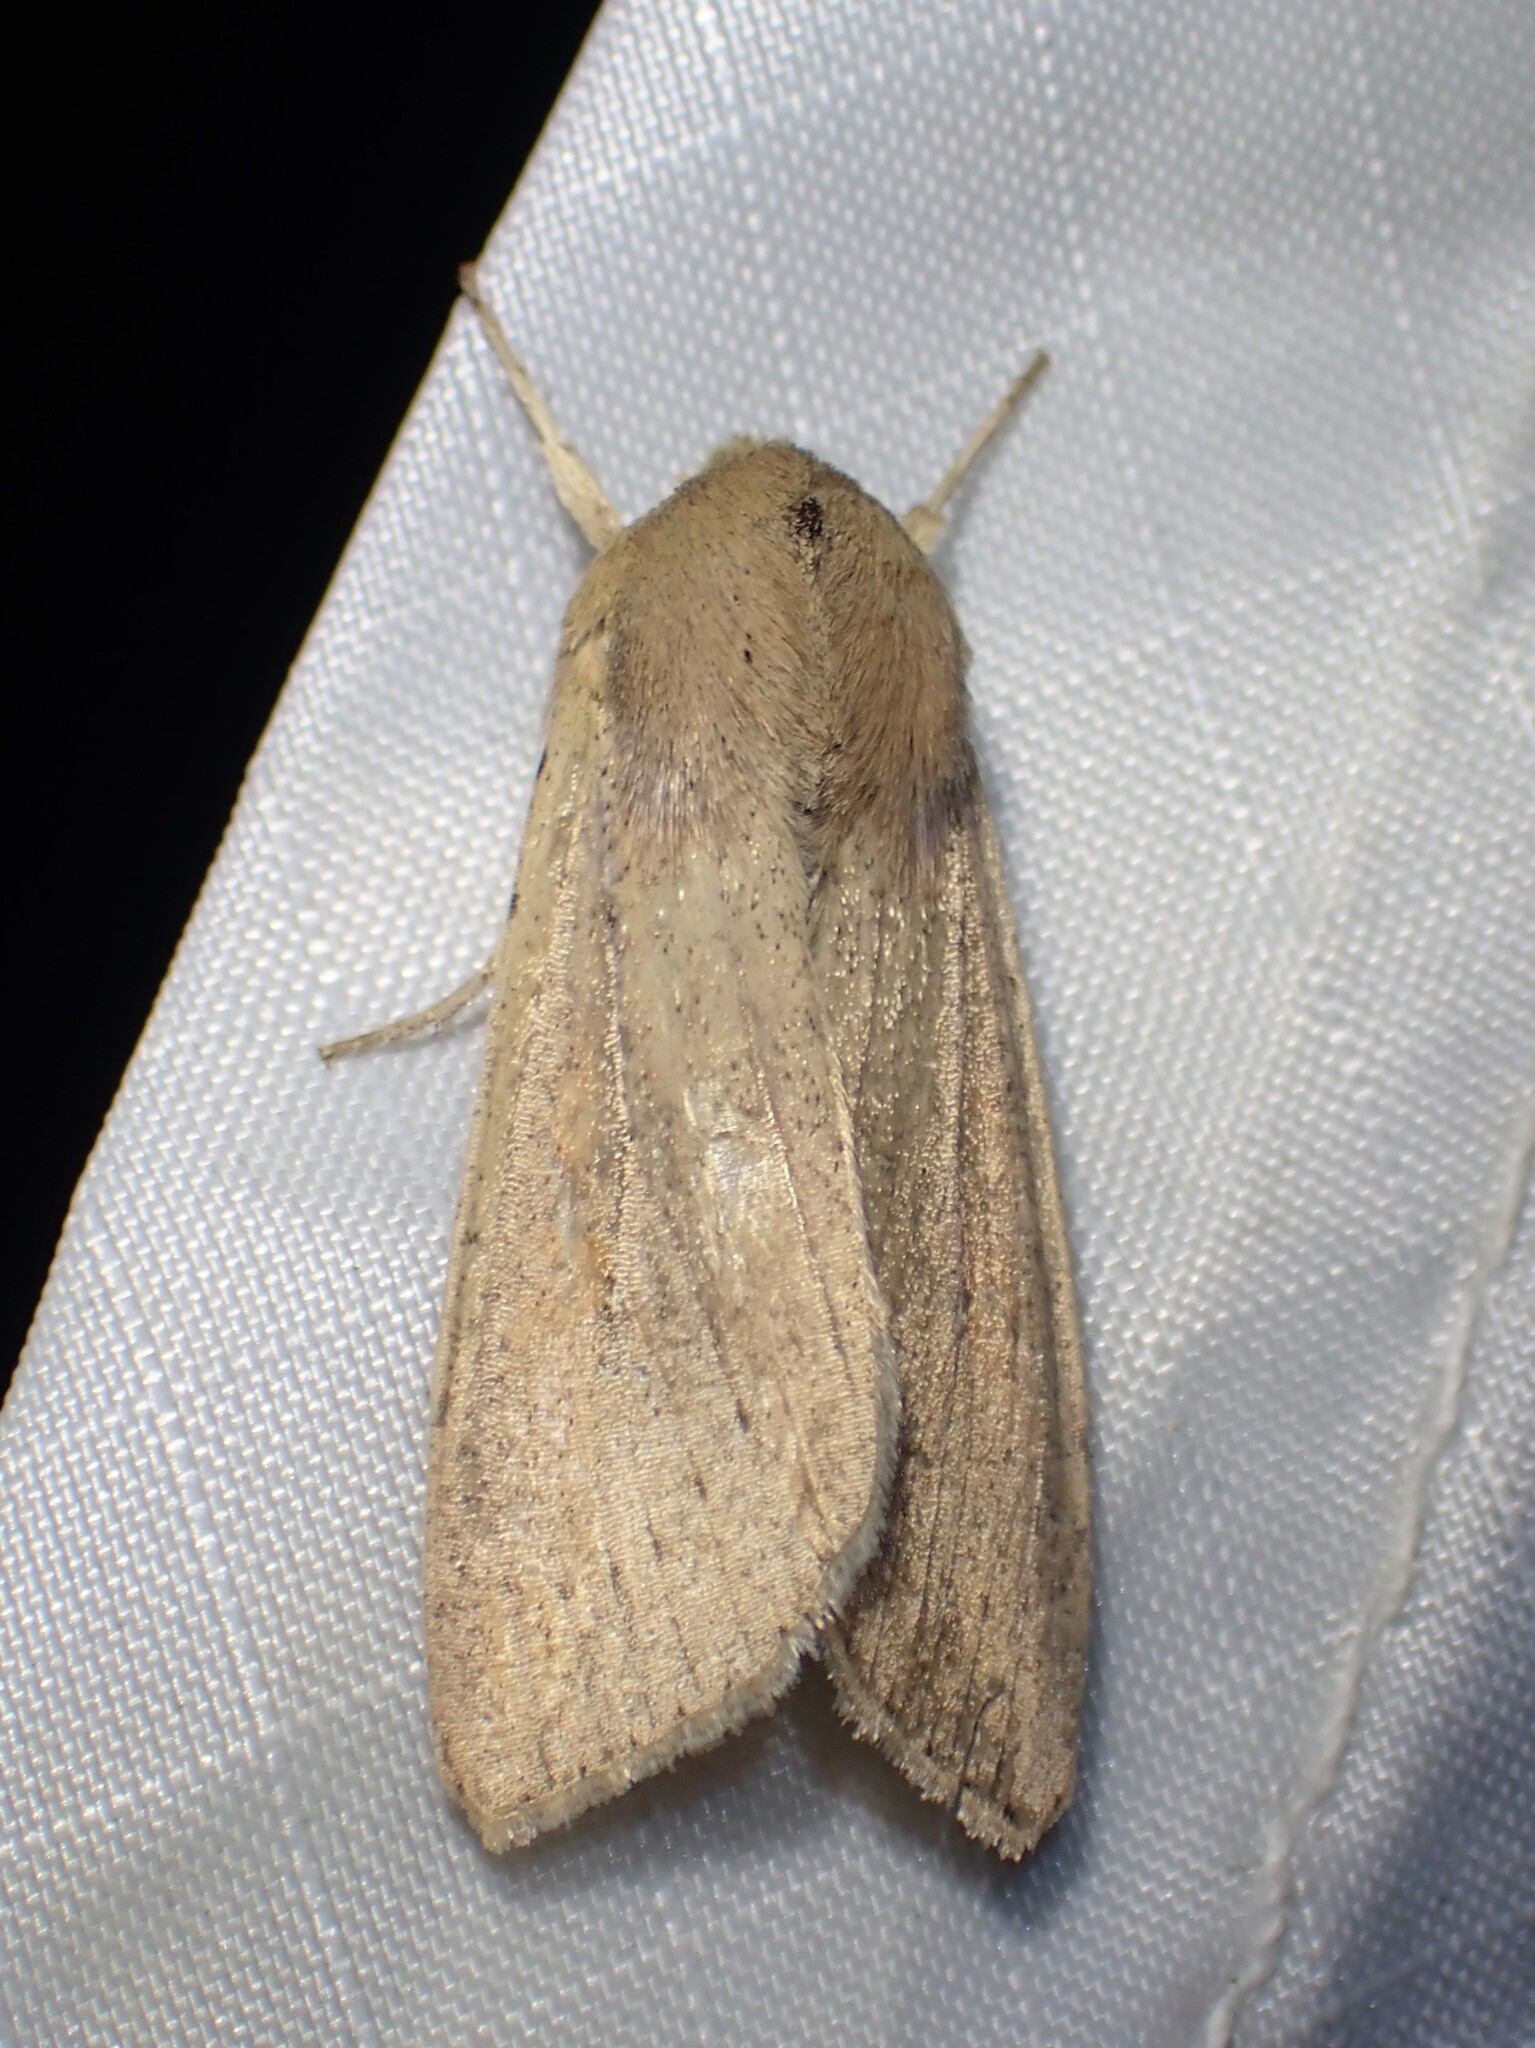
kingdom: Animalia
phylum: Arthropoda
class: Insecta
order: Lepidoptera
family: Noctuidae
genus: Mythimna
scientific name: Mythimna unipuncta
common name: White-speck
